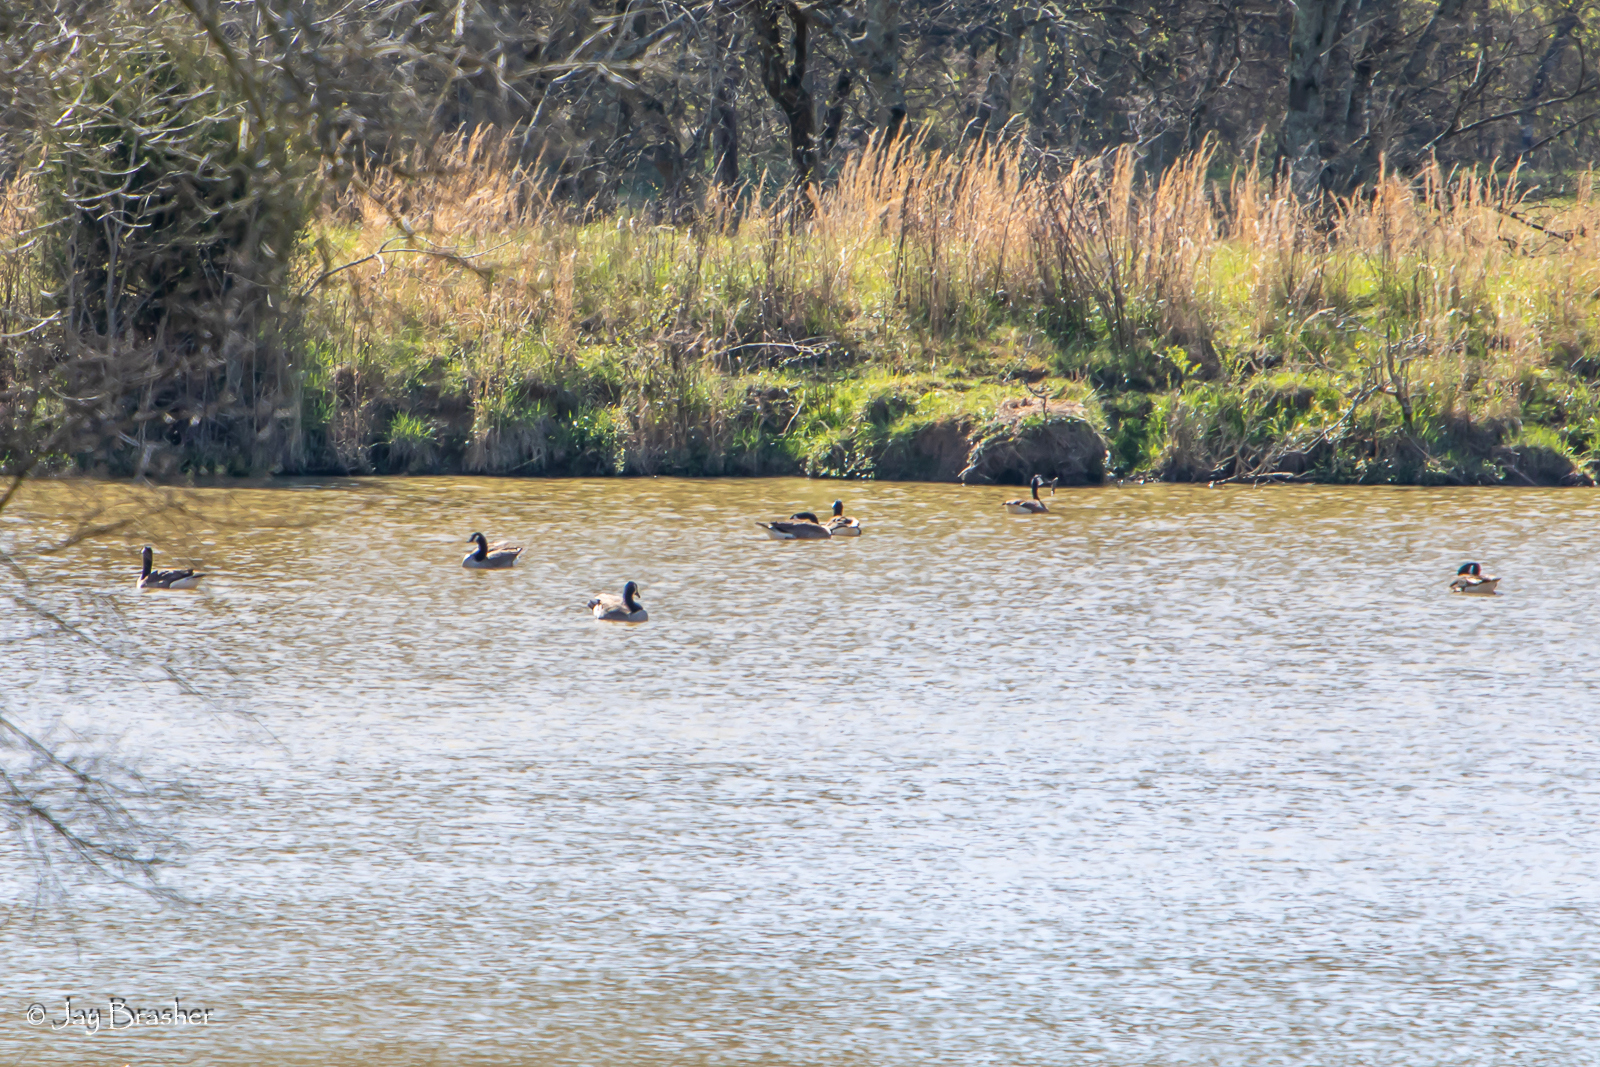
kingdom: Animalia
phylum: Chordata
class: Aves
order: Anseriformes
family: Anatidae
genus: Branta
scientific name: Branta canadensis
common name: Canada goose
